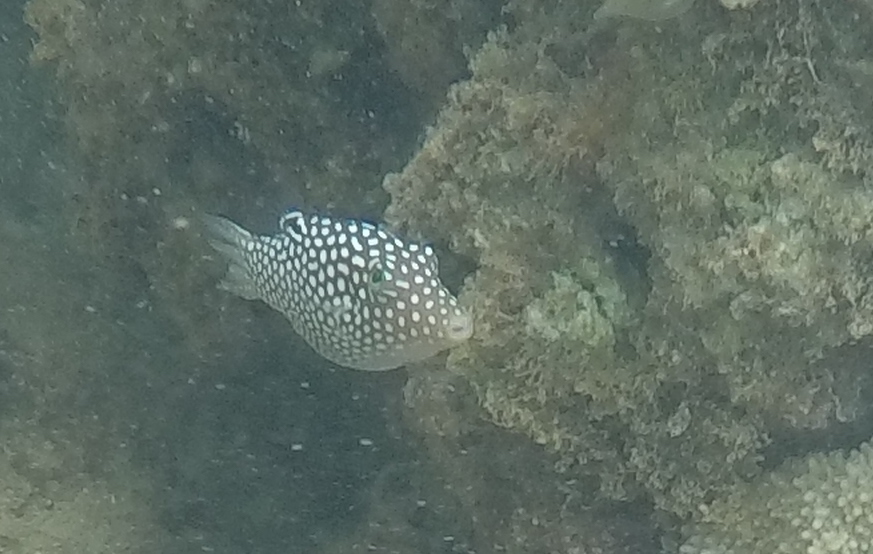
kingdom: Animalia
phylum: Chordata
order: Tetraodontiformes
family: Tetraodontidae
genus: Canthigaster
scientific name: Canthigaster jactator
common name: Hawaiian whitespotted toby
